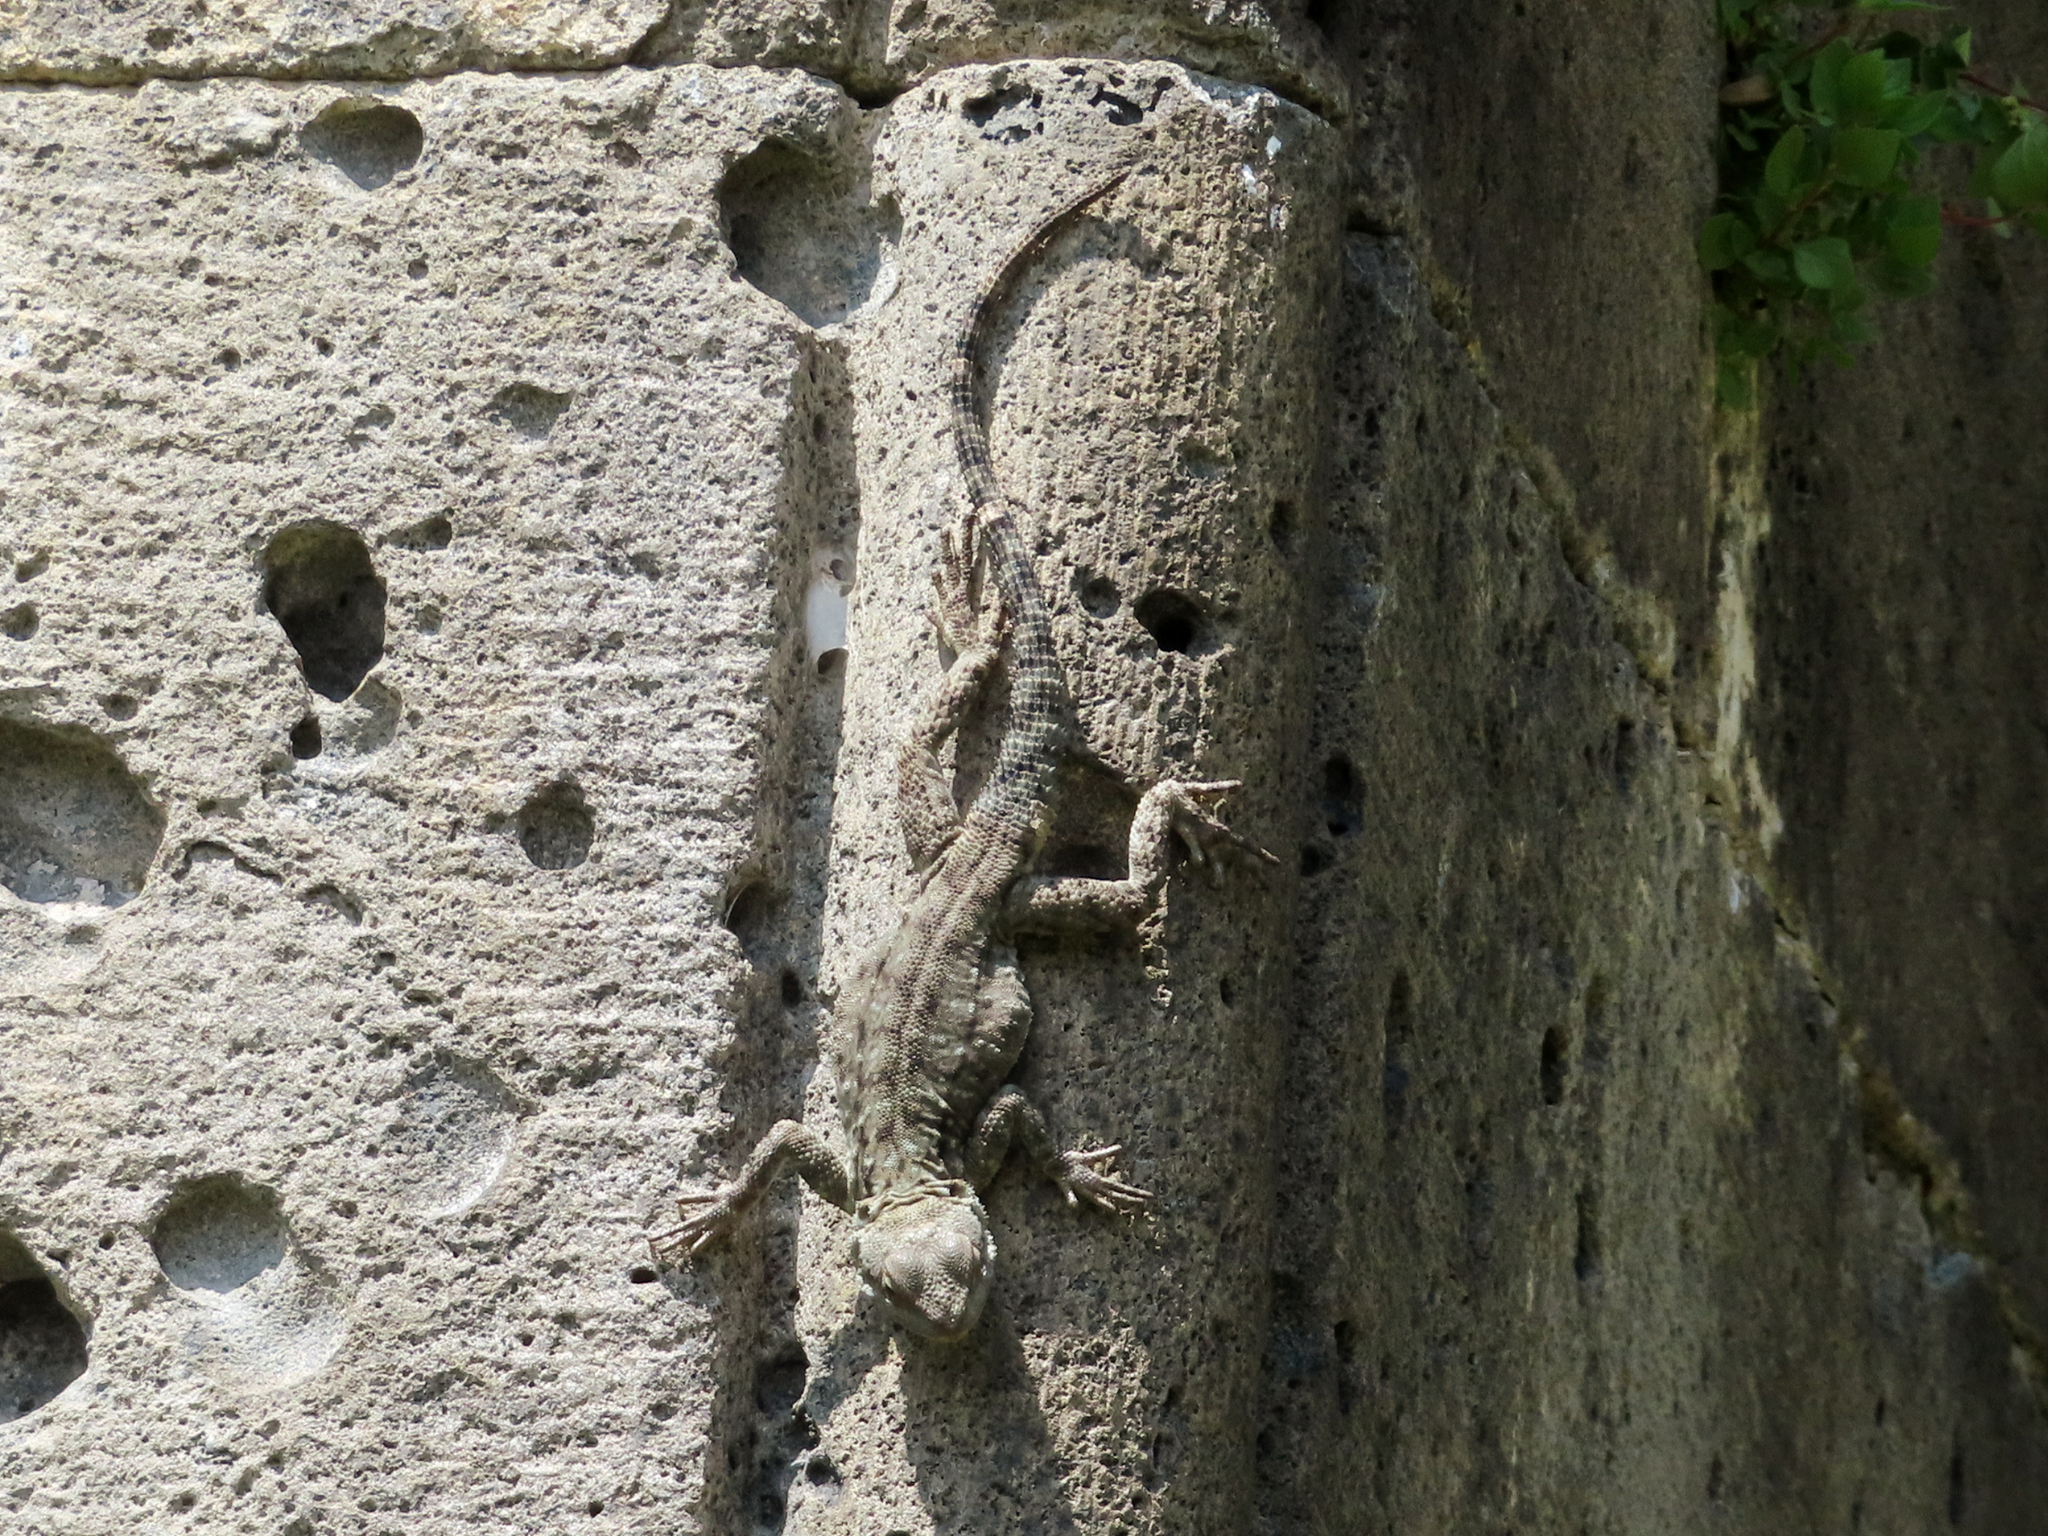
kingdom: Animalia
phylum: Chordata
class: Squamata
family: Agamidae
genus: Paralaudakia
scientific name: Paralaudakia caucasia
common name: Caucasian agama
